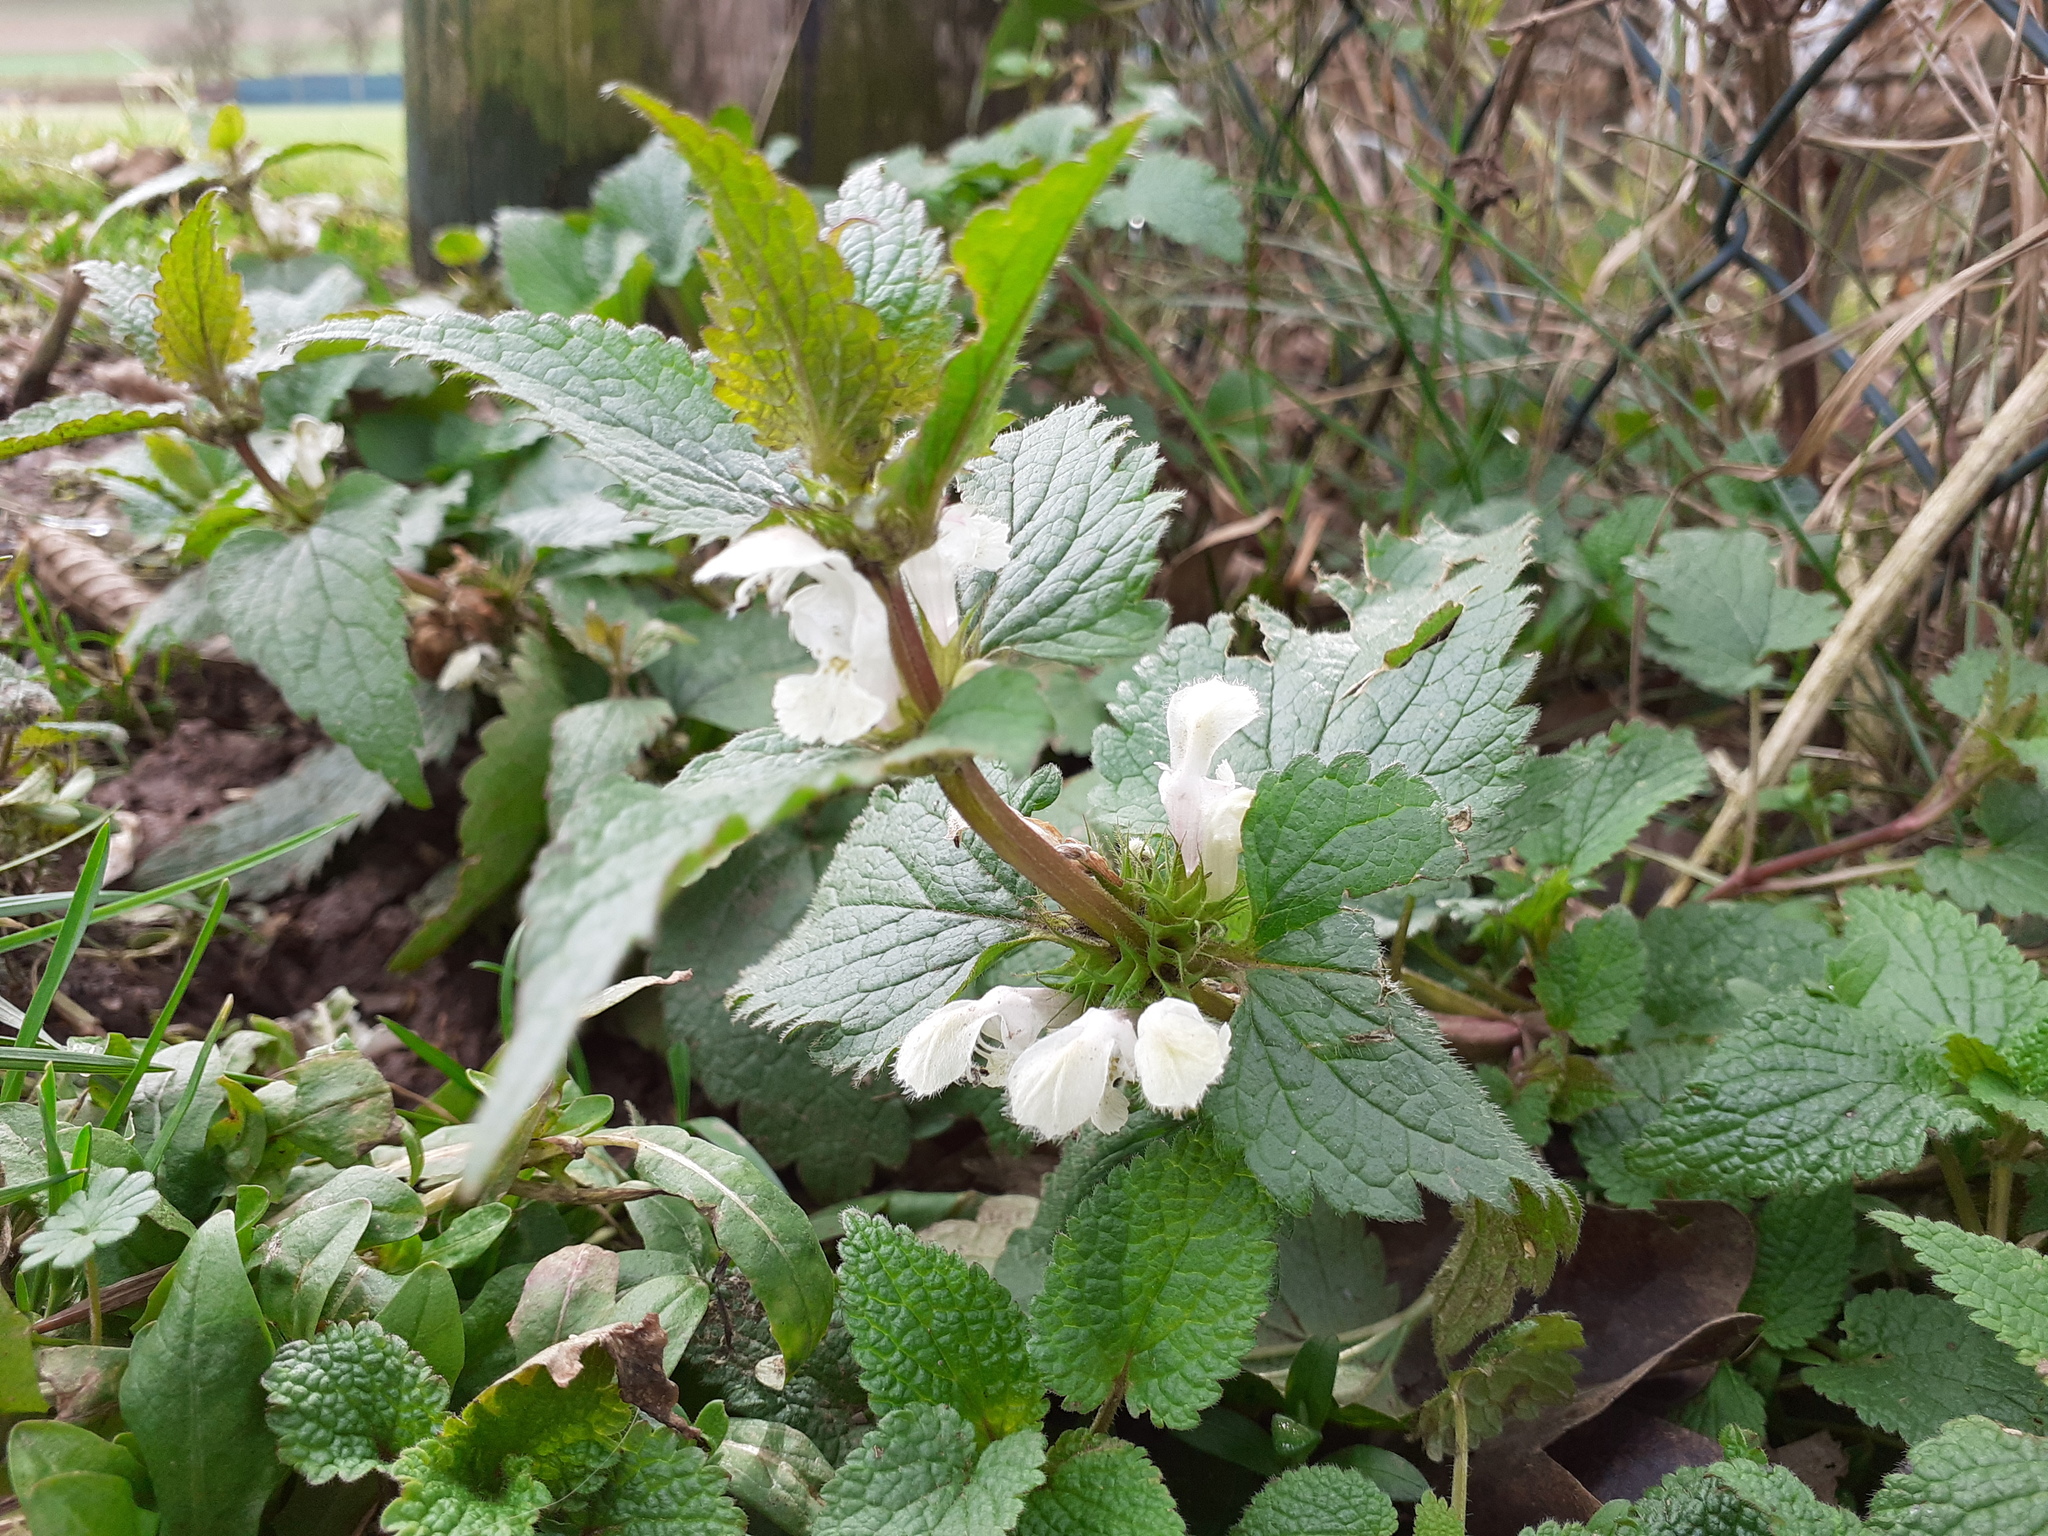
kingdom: Plantae
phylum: Tracheophyta
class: Magnoliopsida
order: Lamiales
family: Lamiaceae
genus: Lamium
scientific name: Lamium album
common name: White dead-nettle
